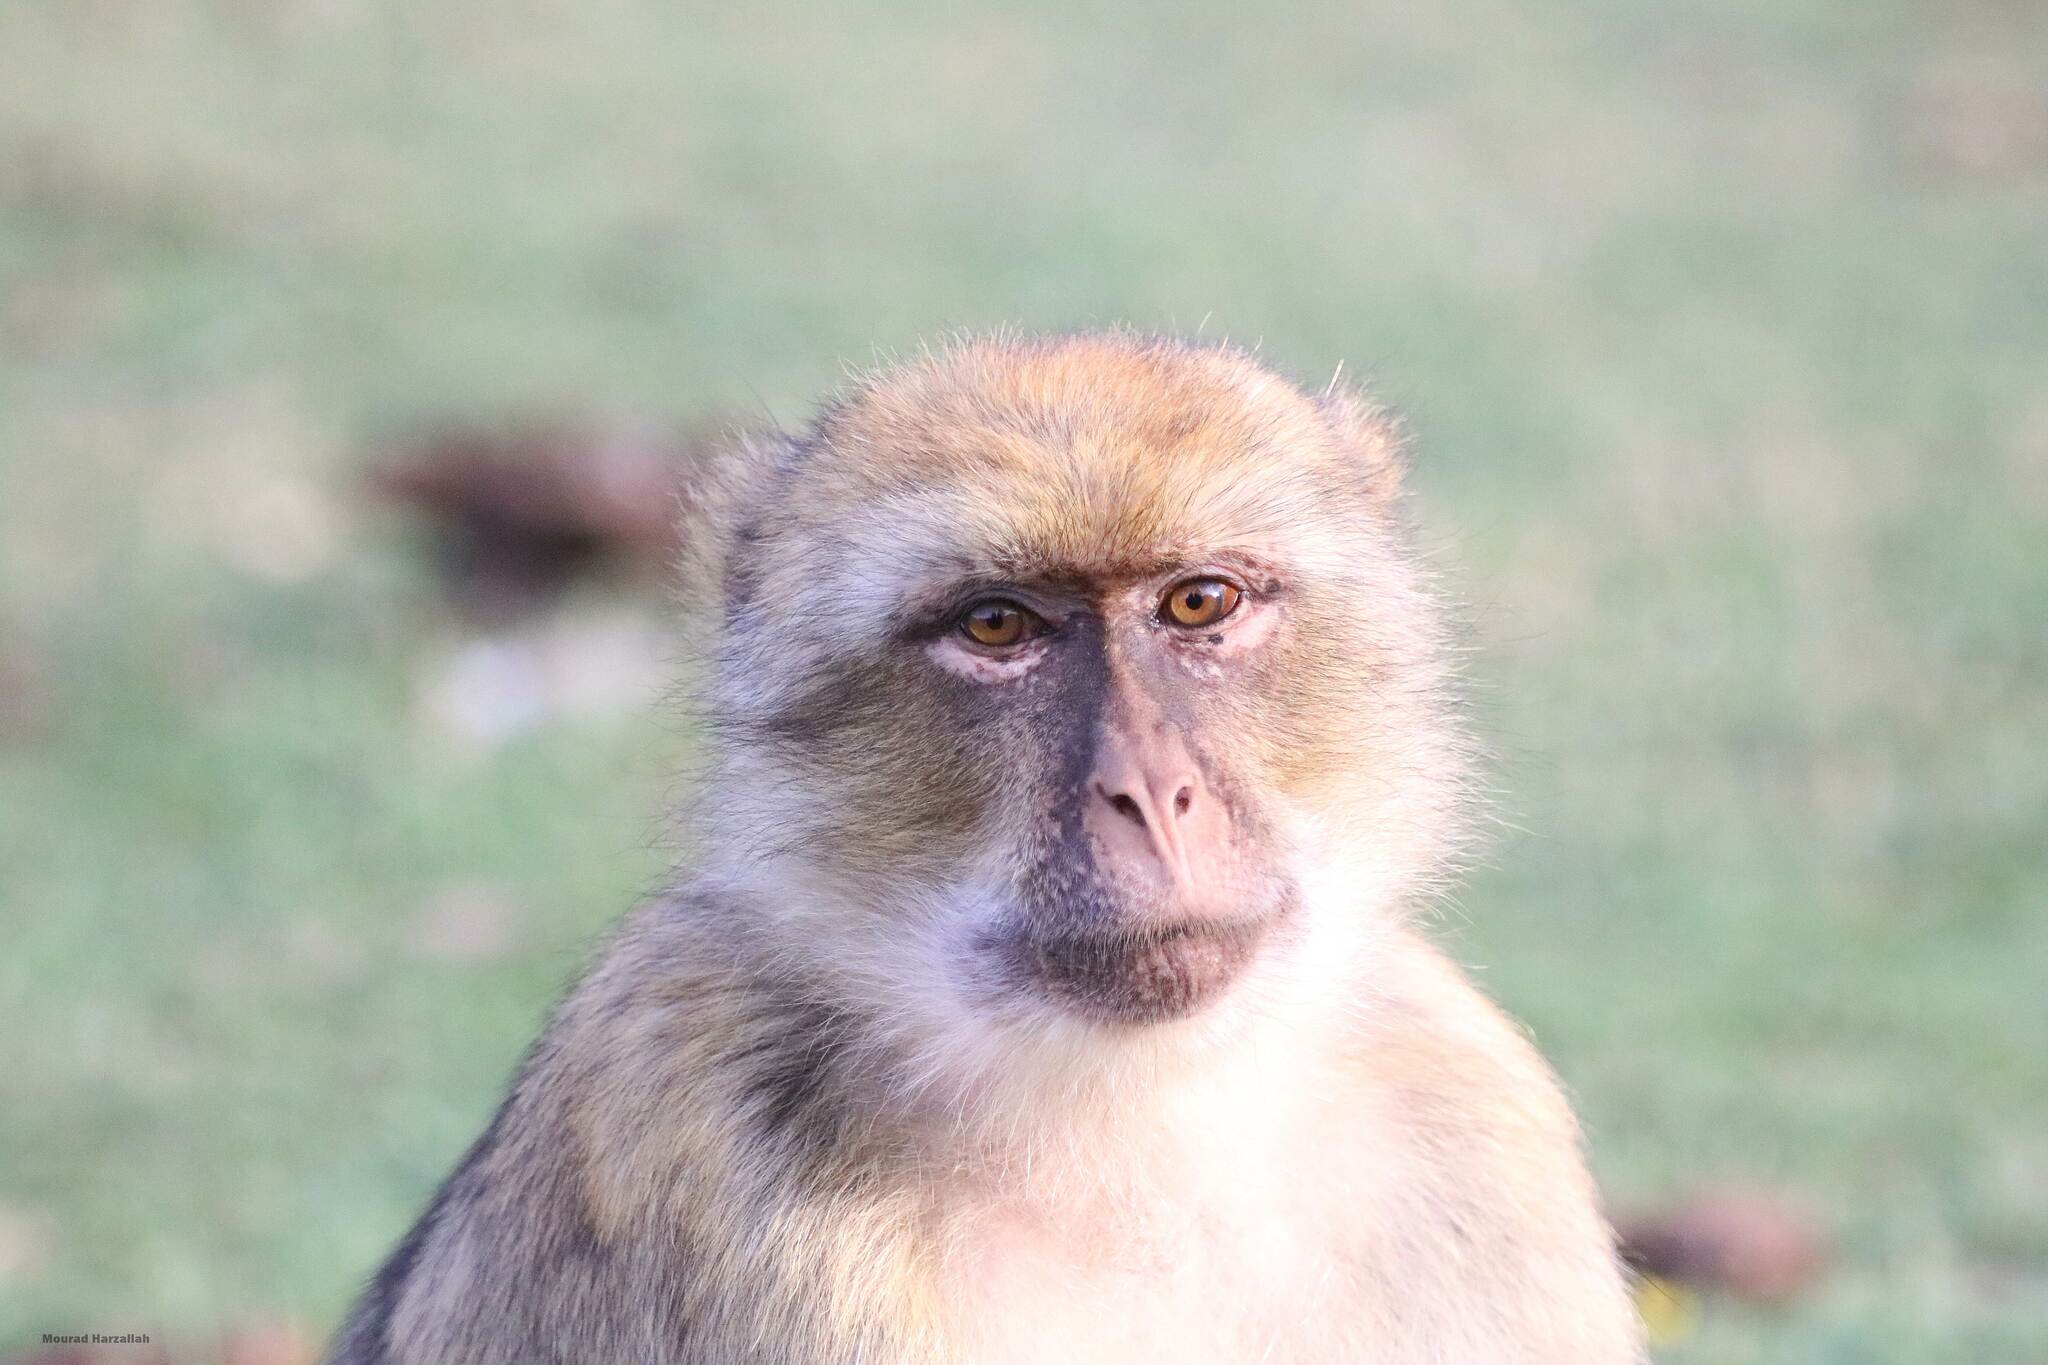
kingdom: Animalia
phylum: Chordata
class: Mammalia
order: Primates
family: Cercopithecidae
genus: Macaca
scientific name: Macaca sylvanus
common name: Barbary macaque
